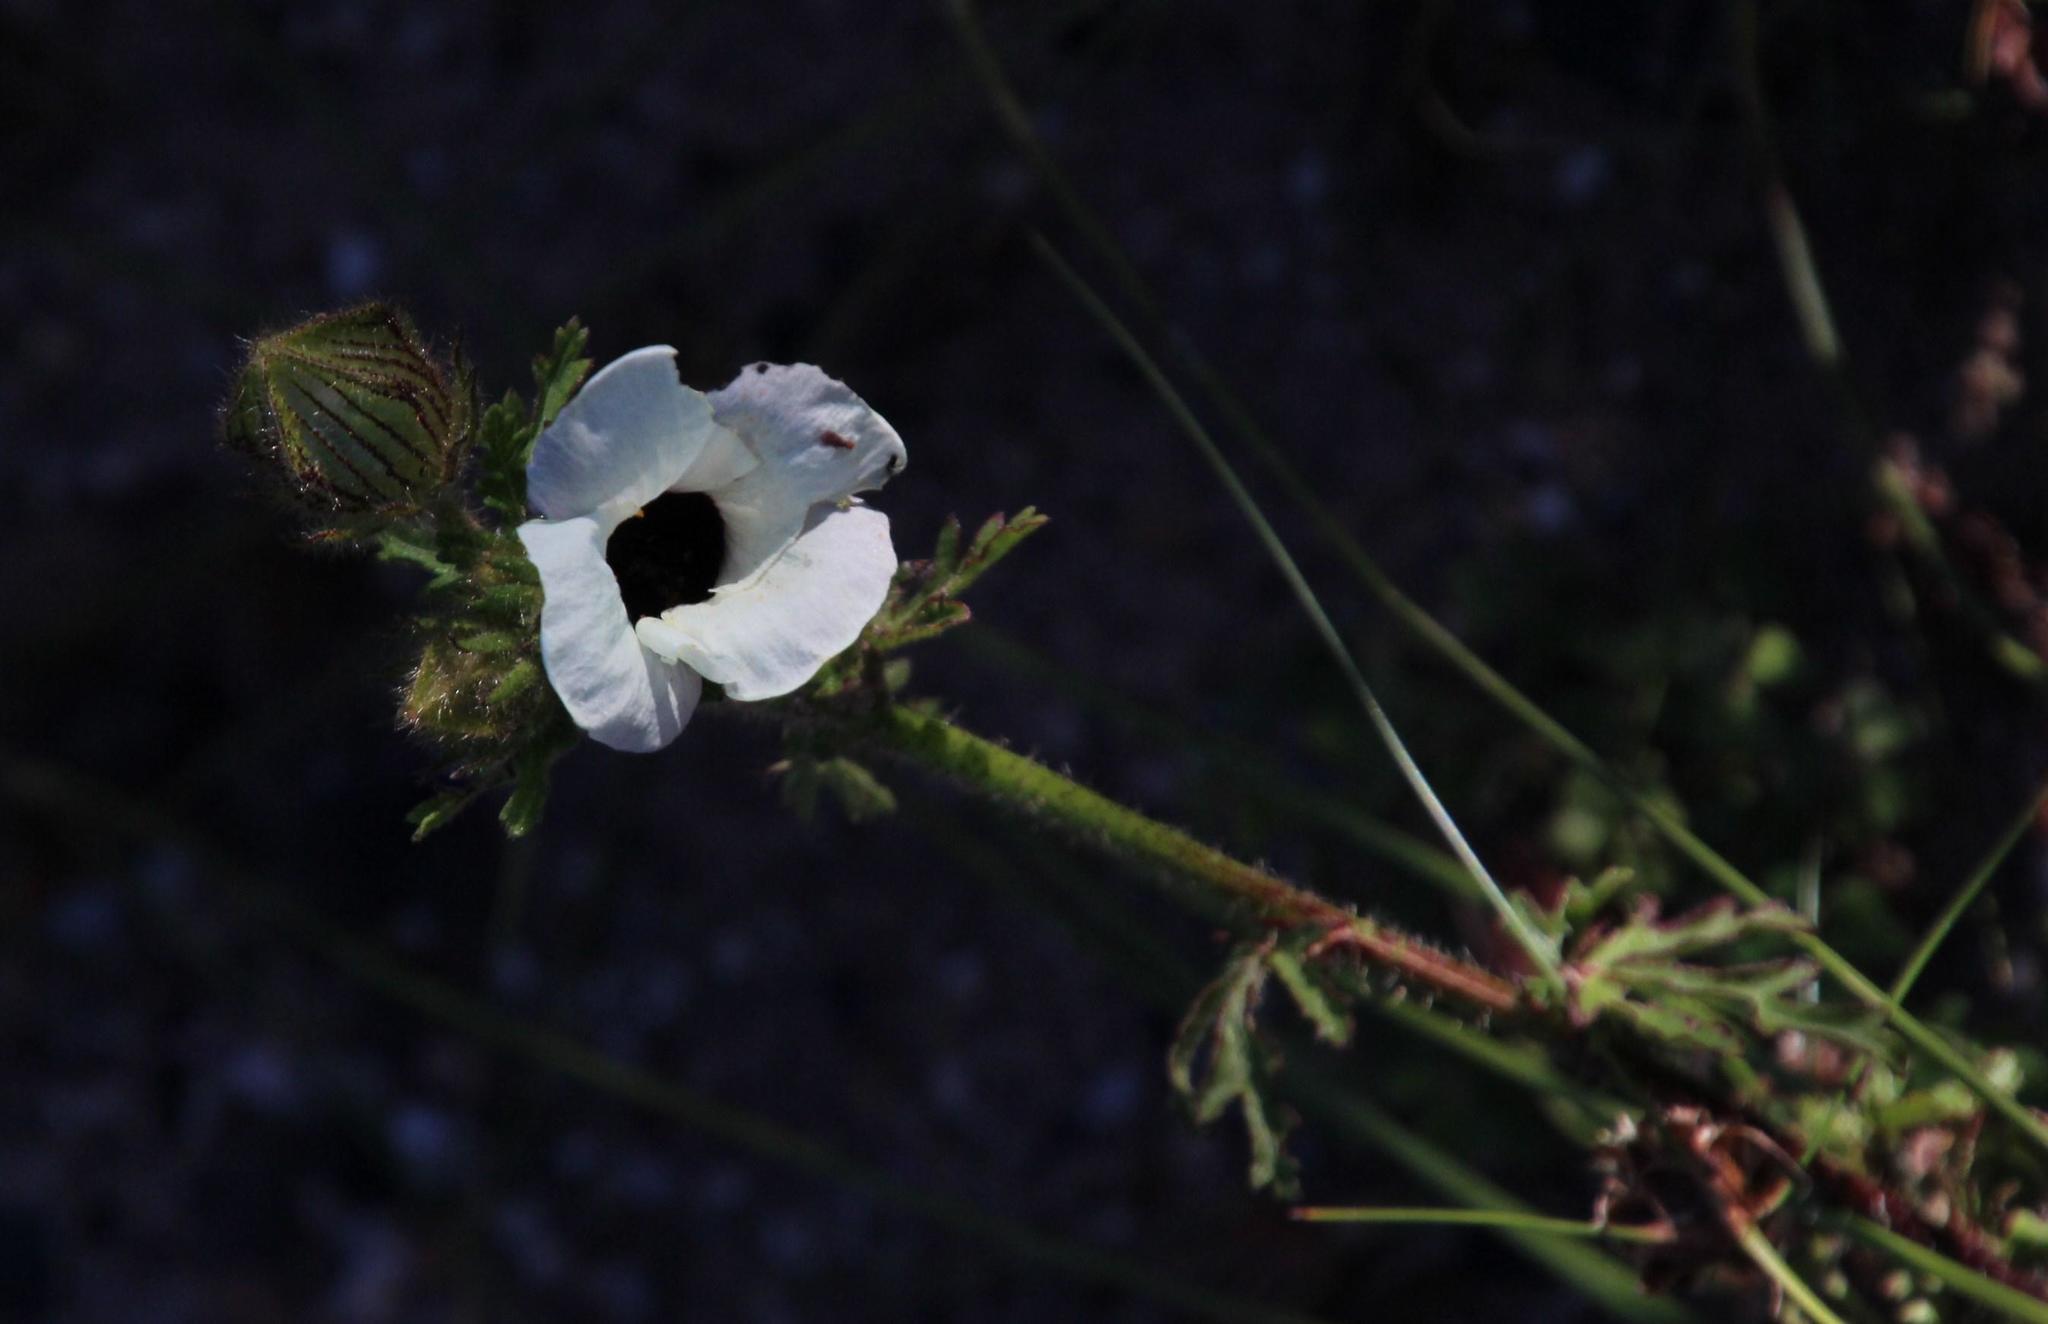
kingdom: Plantae
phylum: Tracheophyta
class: Magnoliopsida
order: Malvales
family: Malvaceae
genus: Hibiscus
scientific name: Hibiscus trionum
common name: Bladder ketmia
